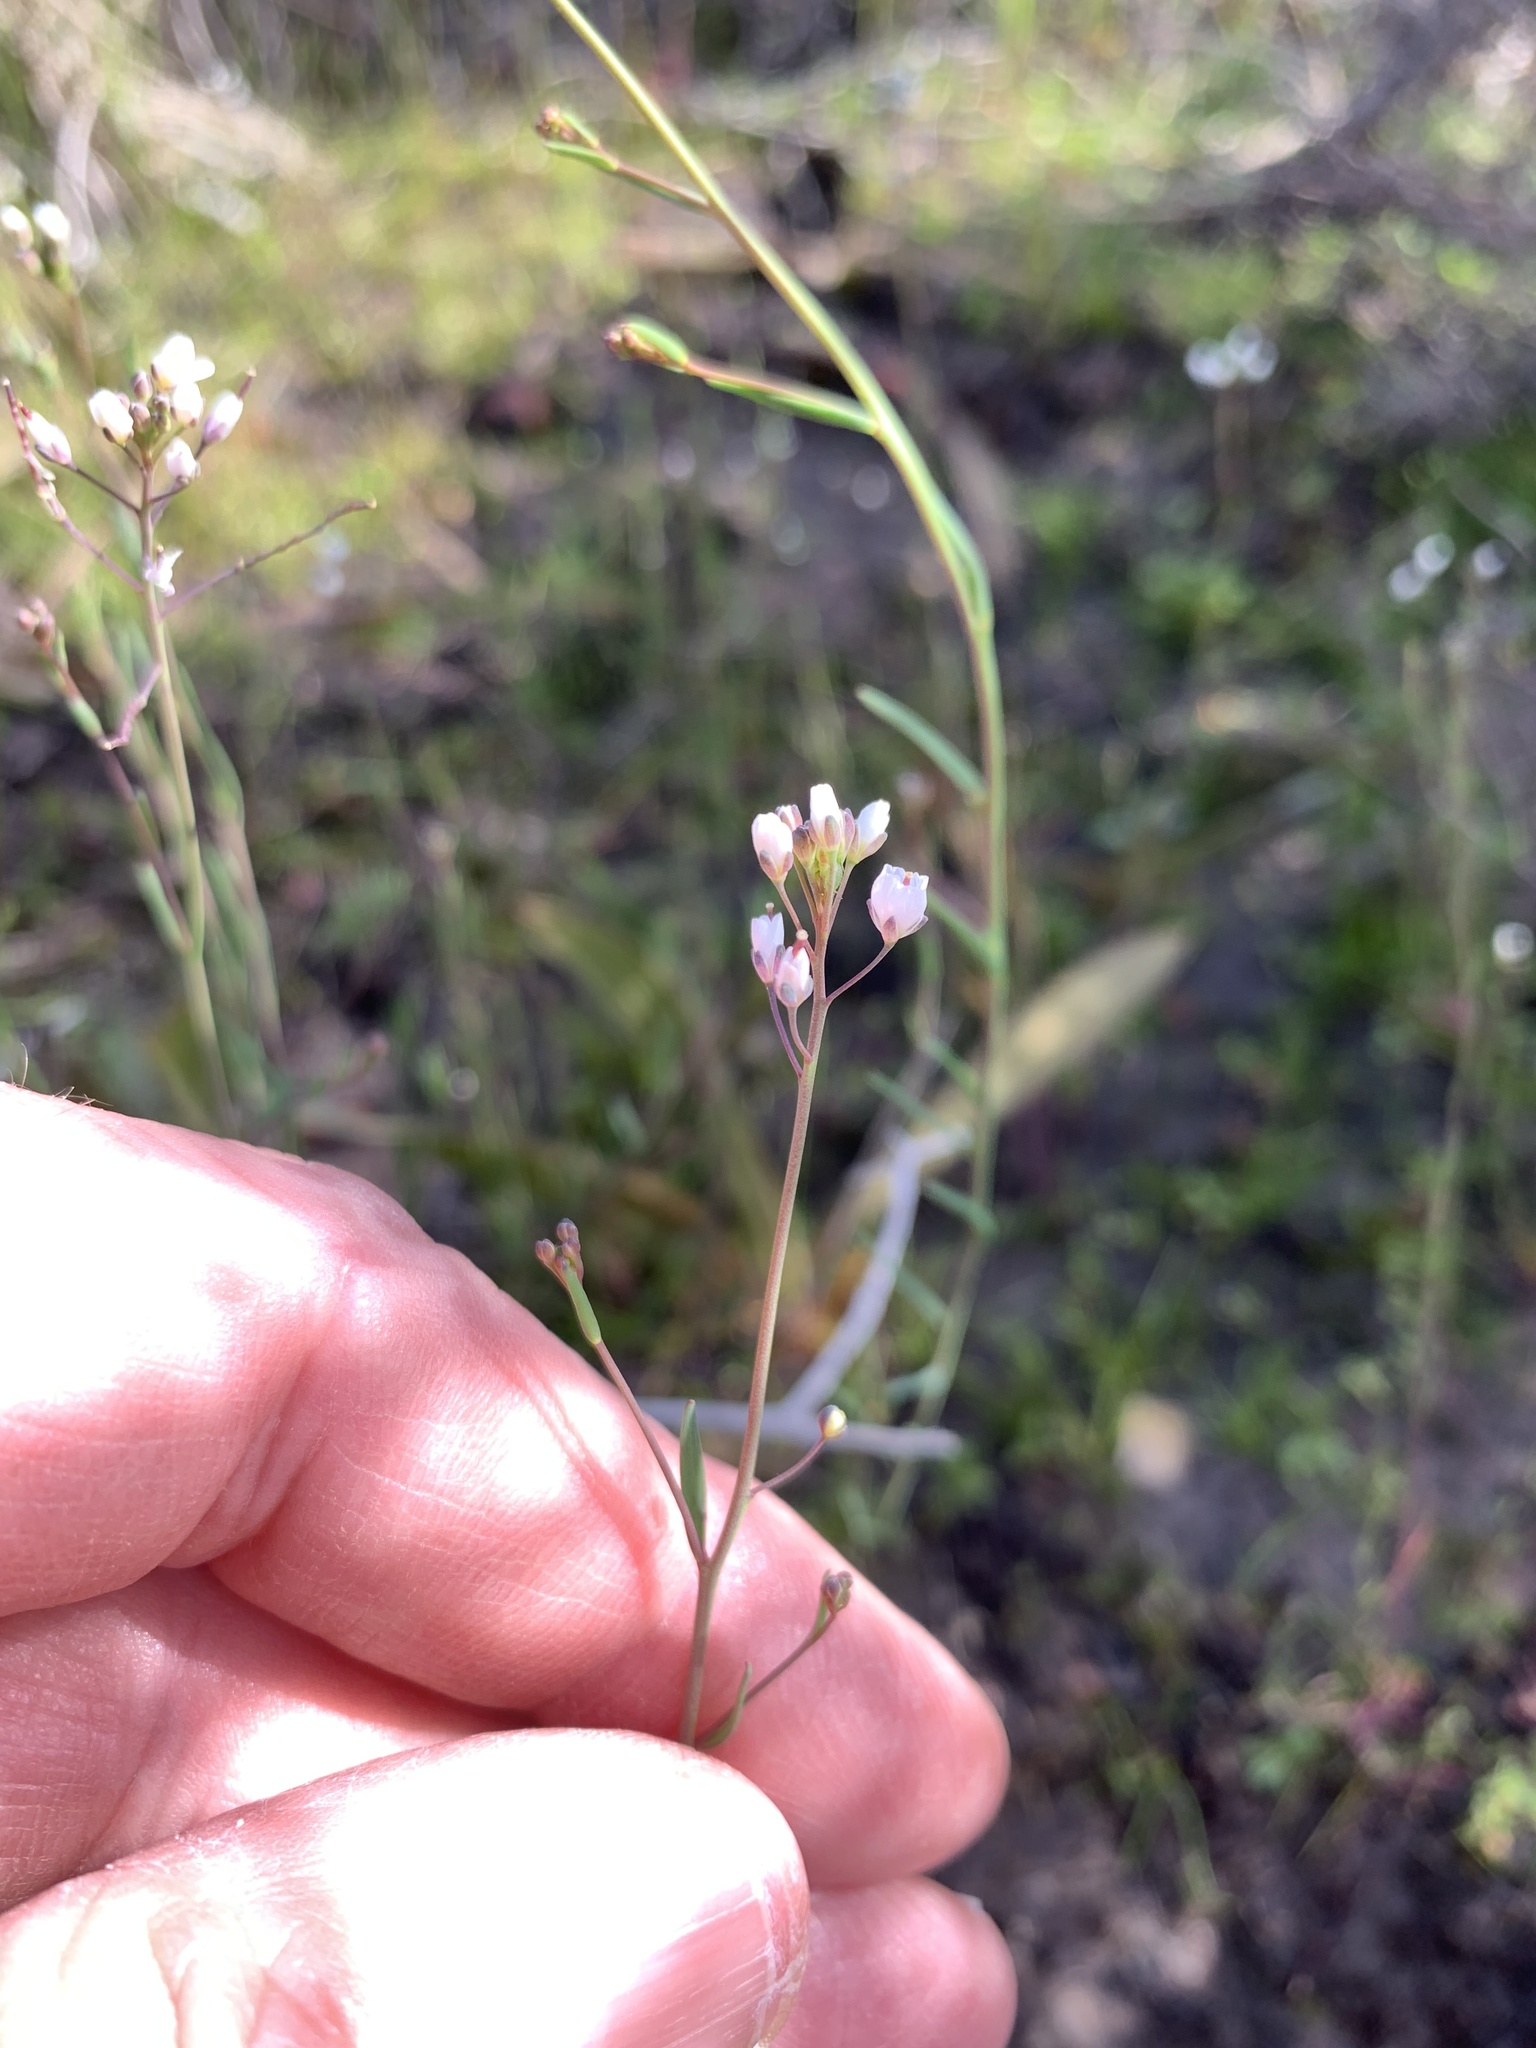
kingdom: Plantae
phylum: Tracheophyta
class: Magnoliopsida
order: Brassicales
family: Brassicaceae
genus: Heliophila
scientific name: Heliophila pusilla
